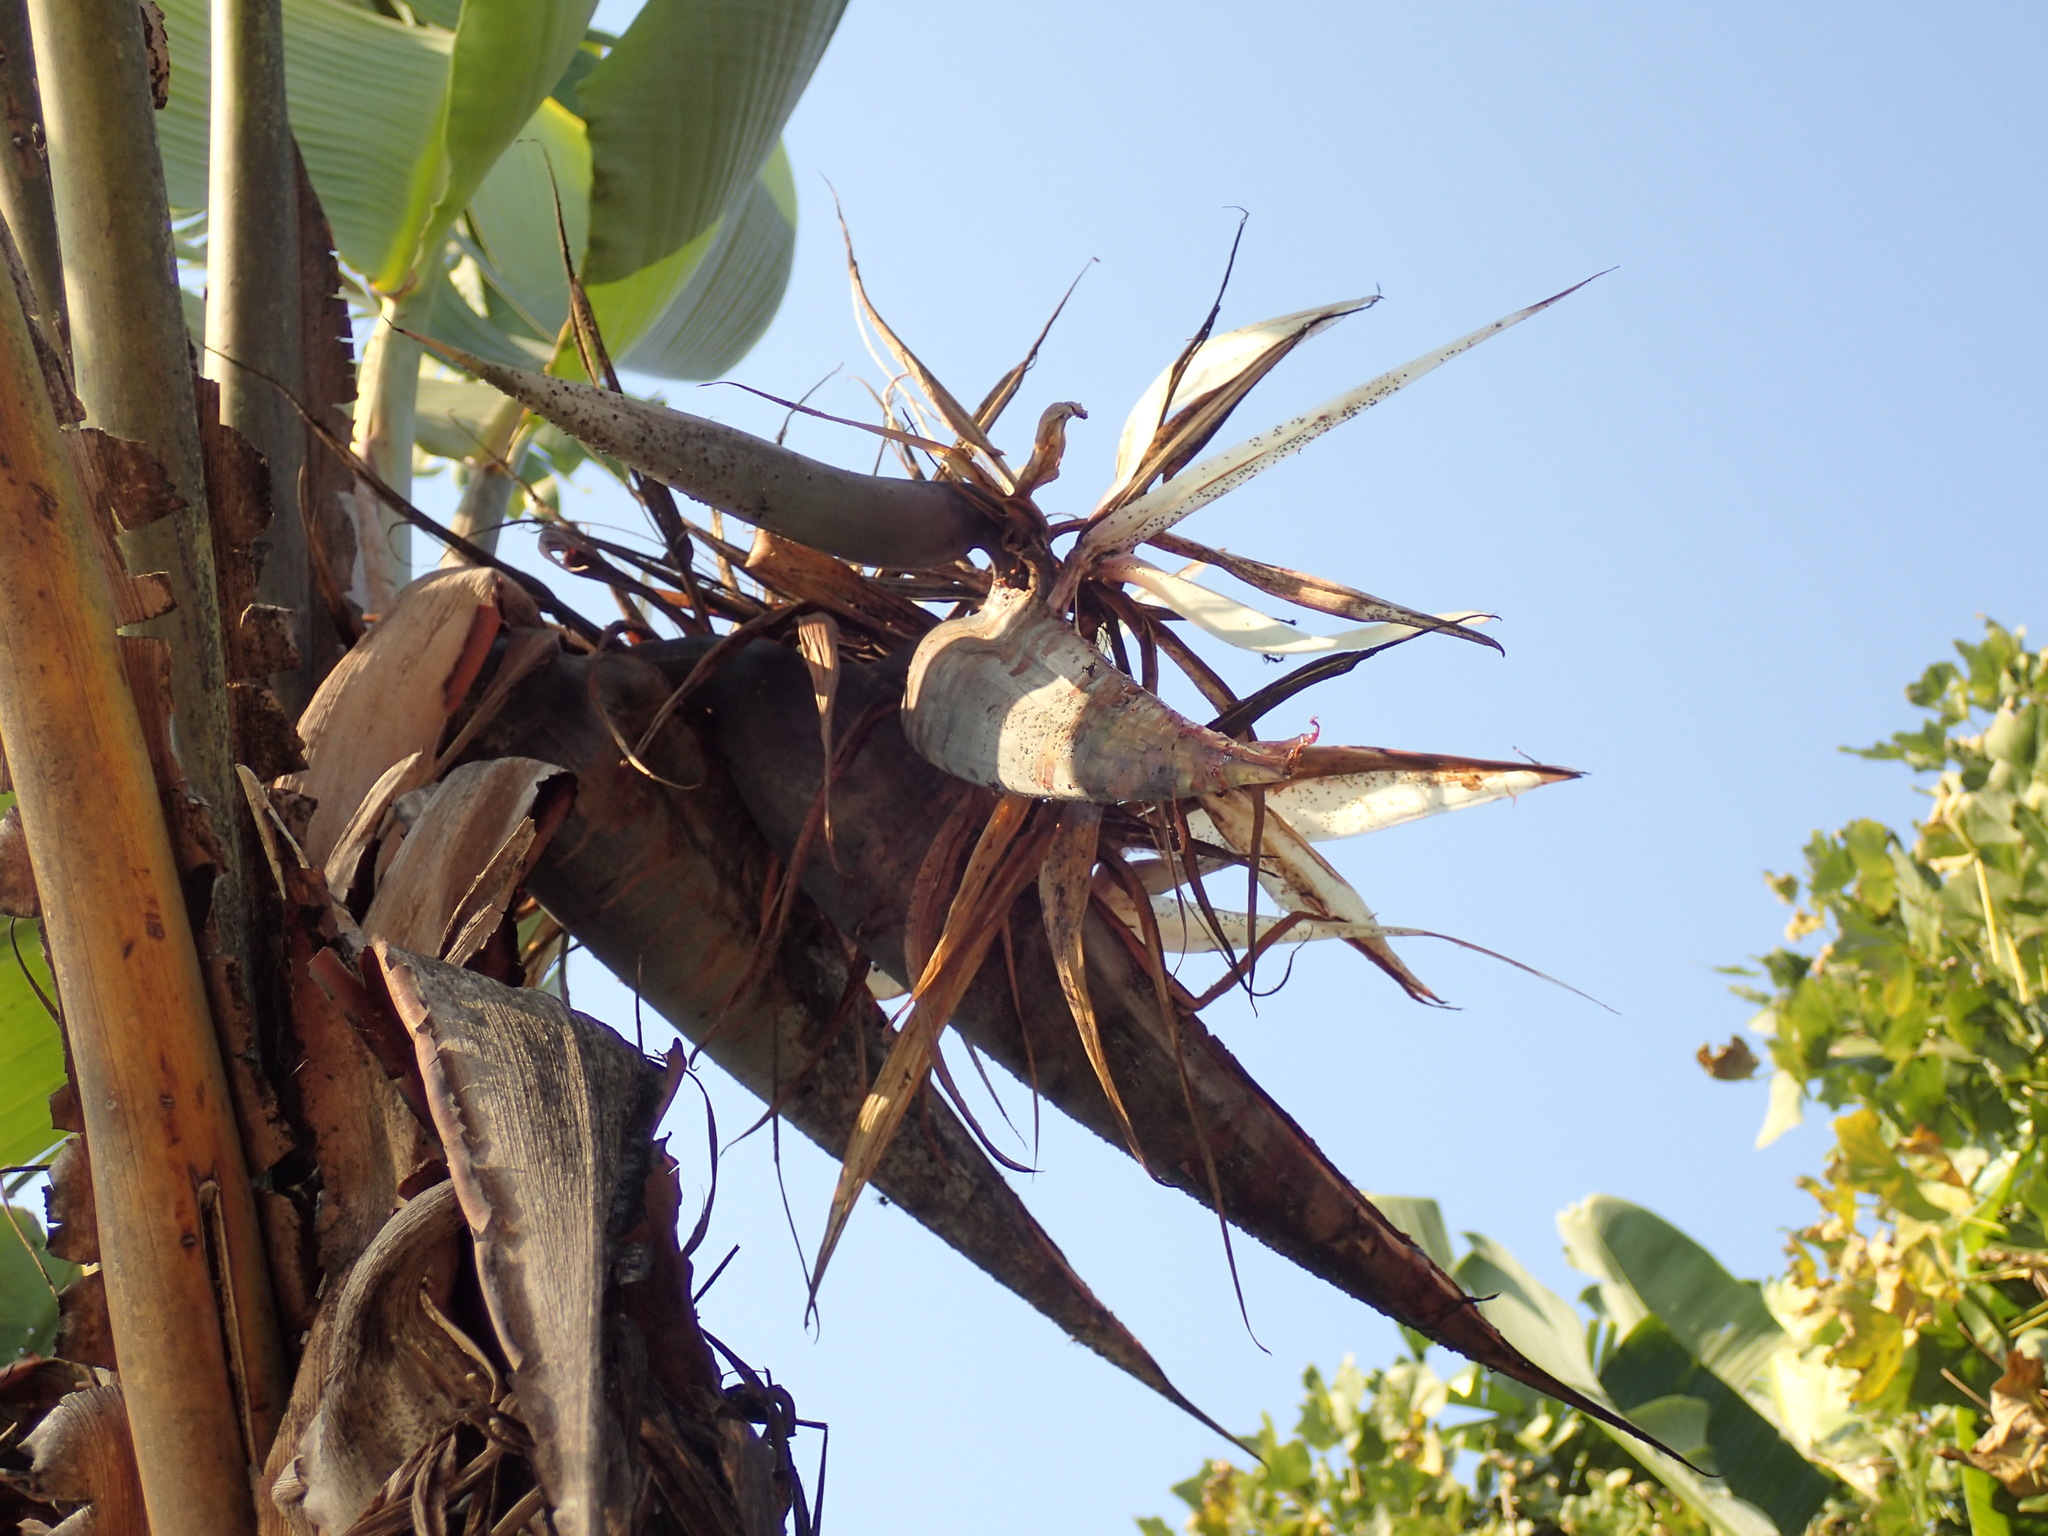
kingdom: Plantae
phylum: Tracheophyta
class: Liliopsida
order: Zingiberales
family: Strelitziaceae
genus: Strelitzia
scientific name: Strelitzia nicolai
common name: Bird-of-paradise tree
